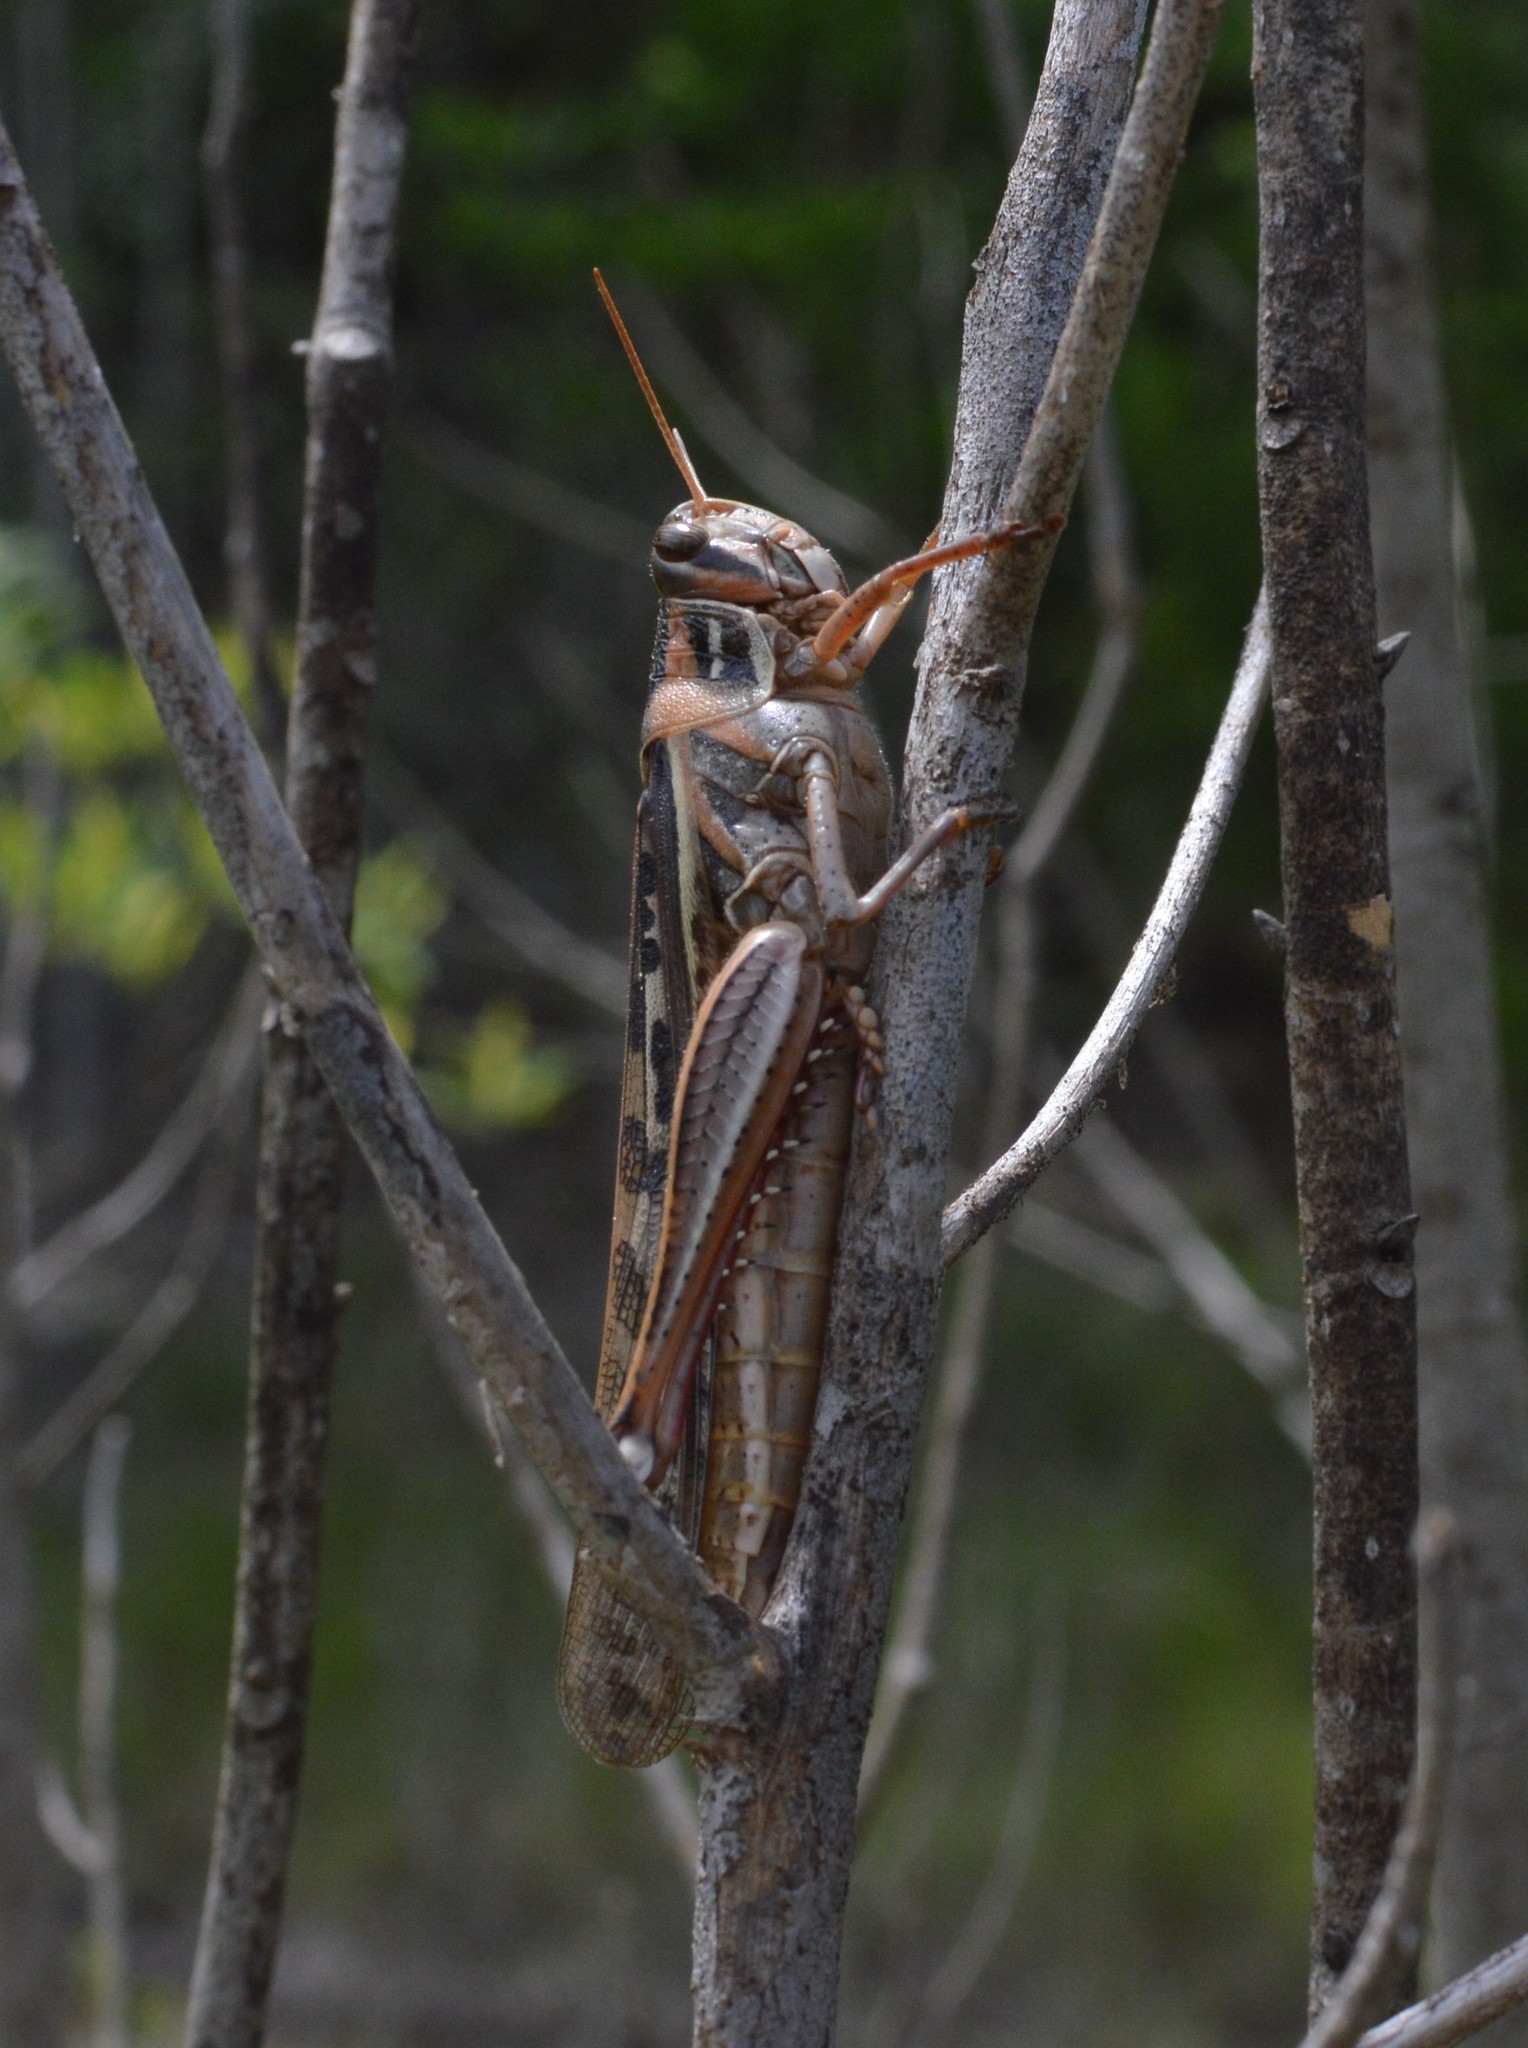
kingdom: Animalia
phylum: Arthropoda
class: Insecta
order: Orthoptera
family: Acrididae
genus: Schistocerca
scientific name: Schistocerca americana
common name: American bird locust
